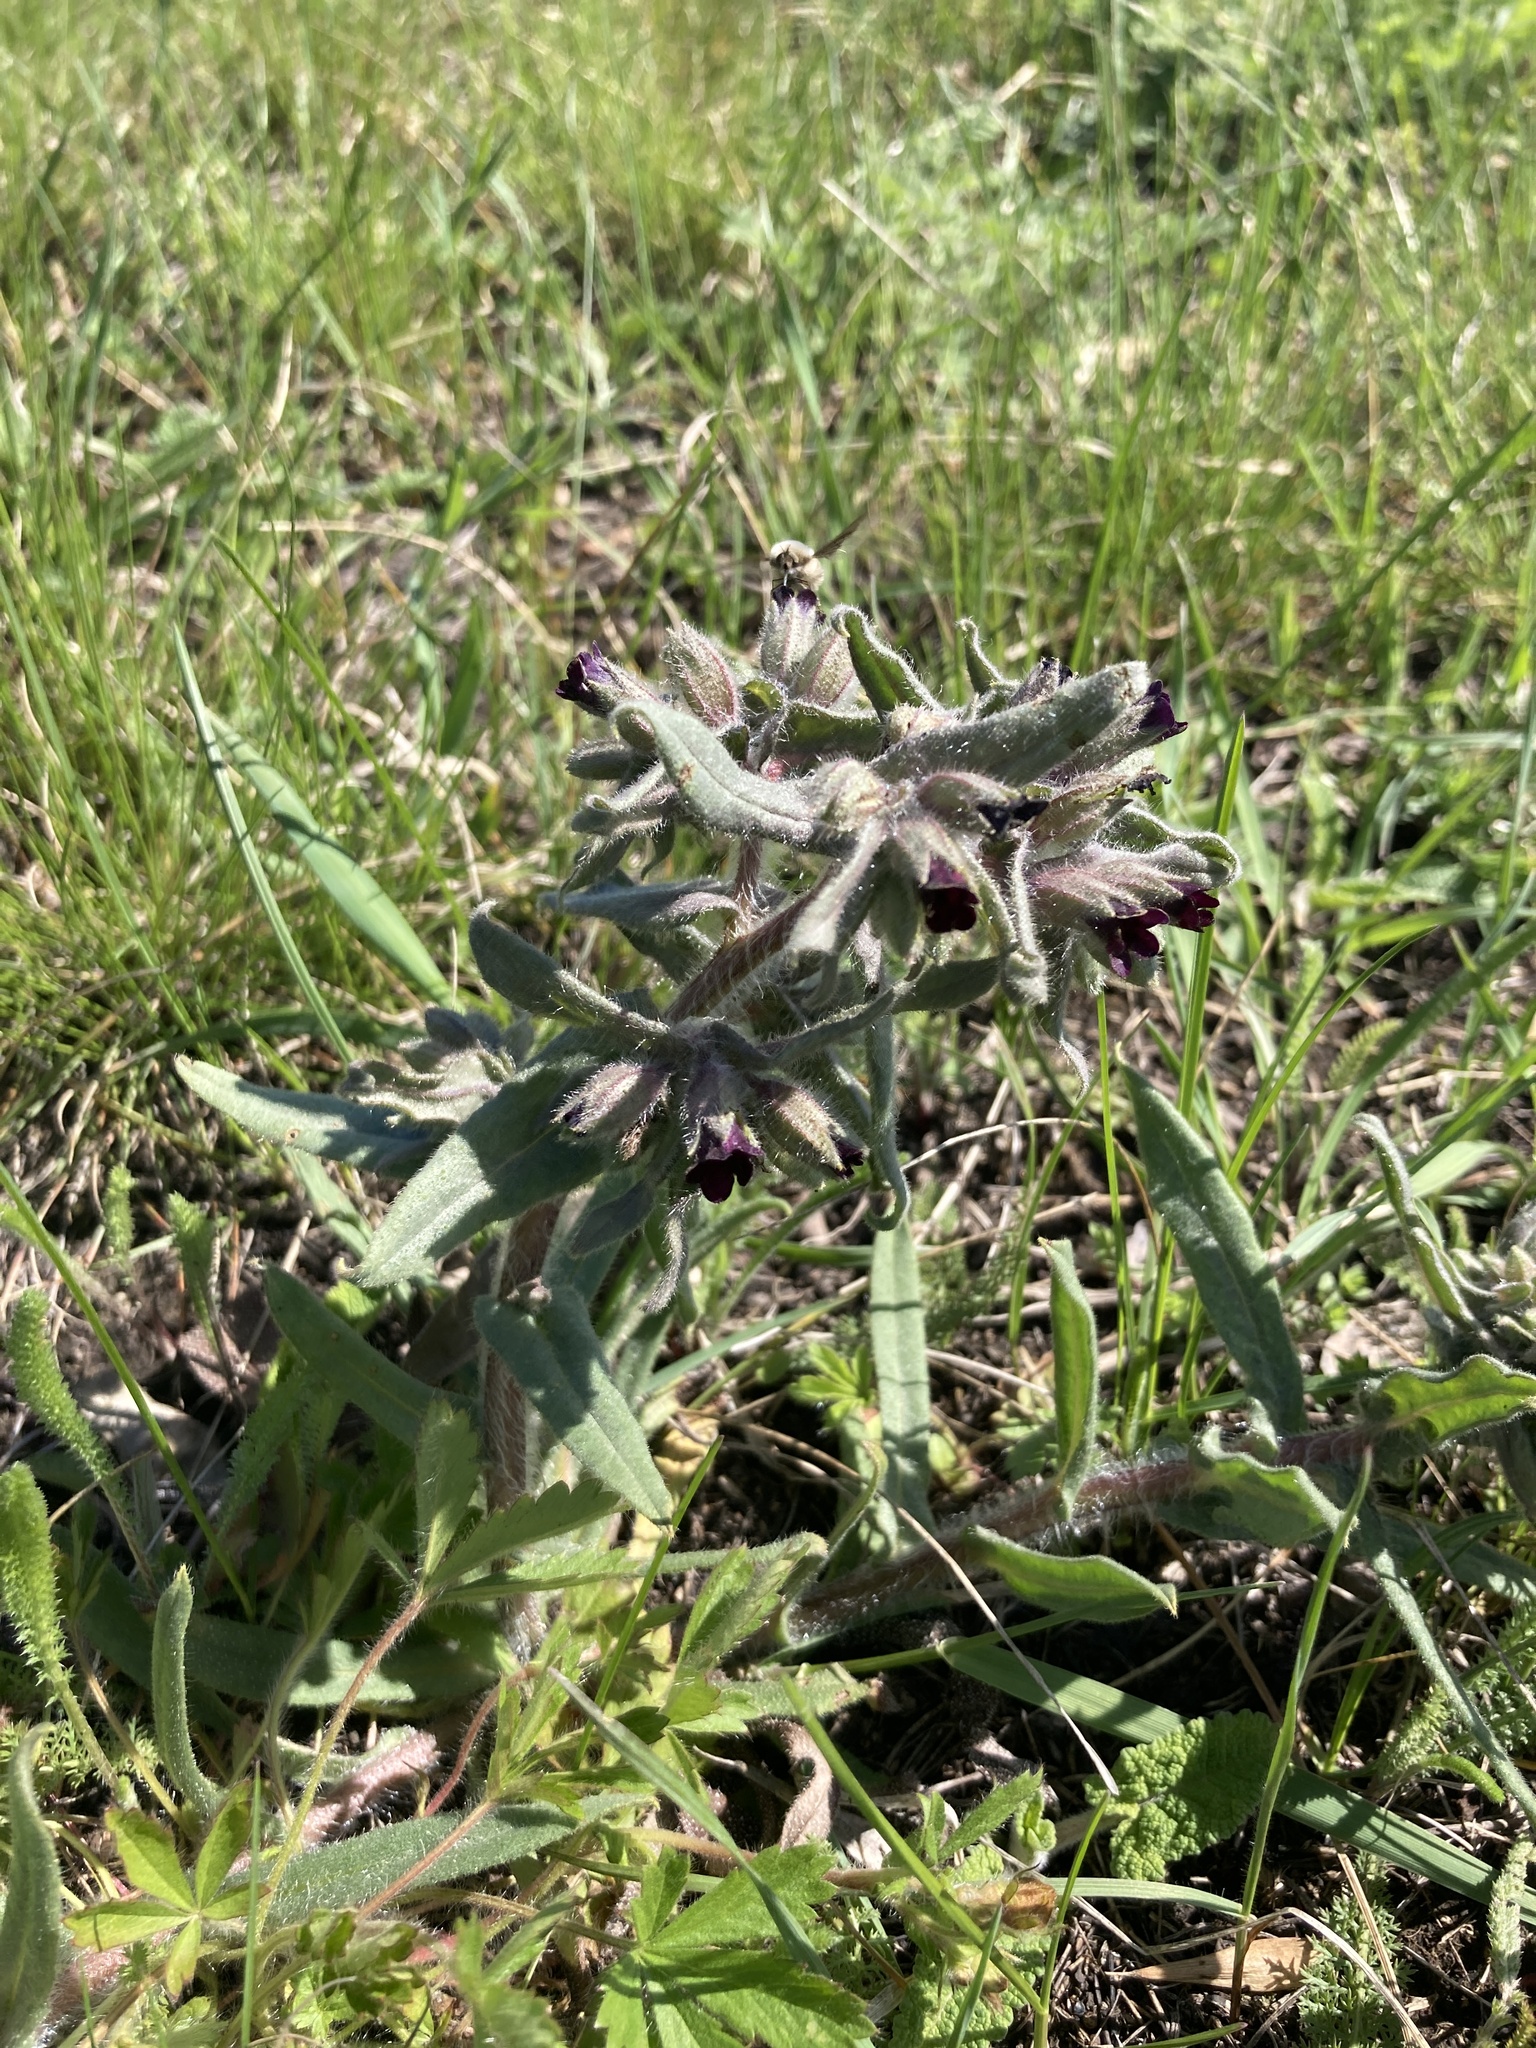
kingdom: Plantae
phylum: Tracheophyta
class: Magnoliopsida
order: Boraginales
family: Boraginaceae
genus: Nonea
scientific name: Nonea pulla
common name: Brown nonea
